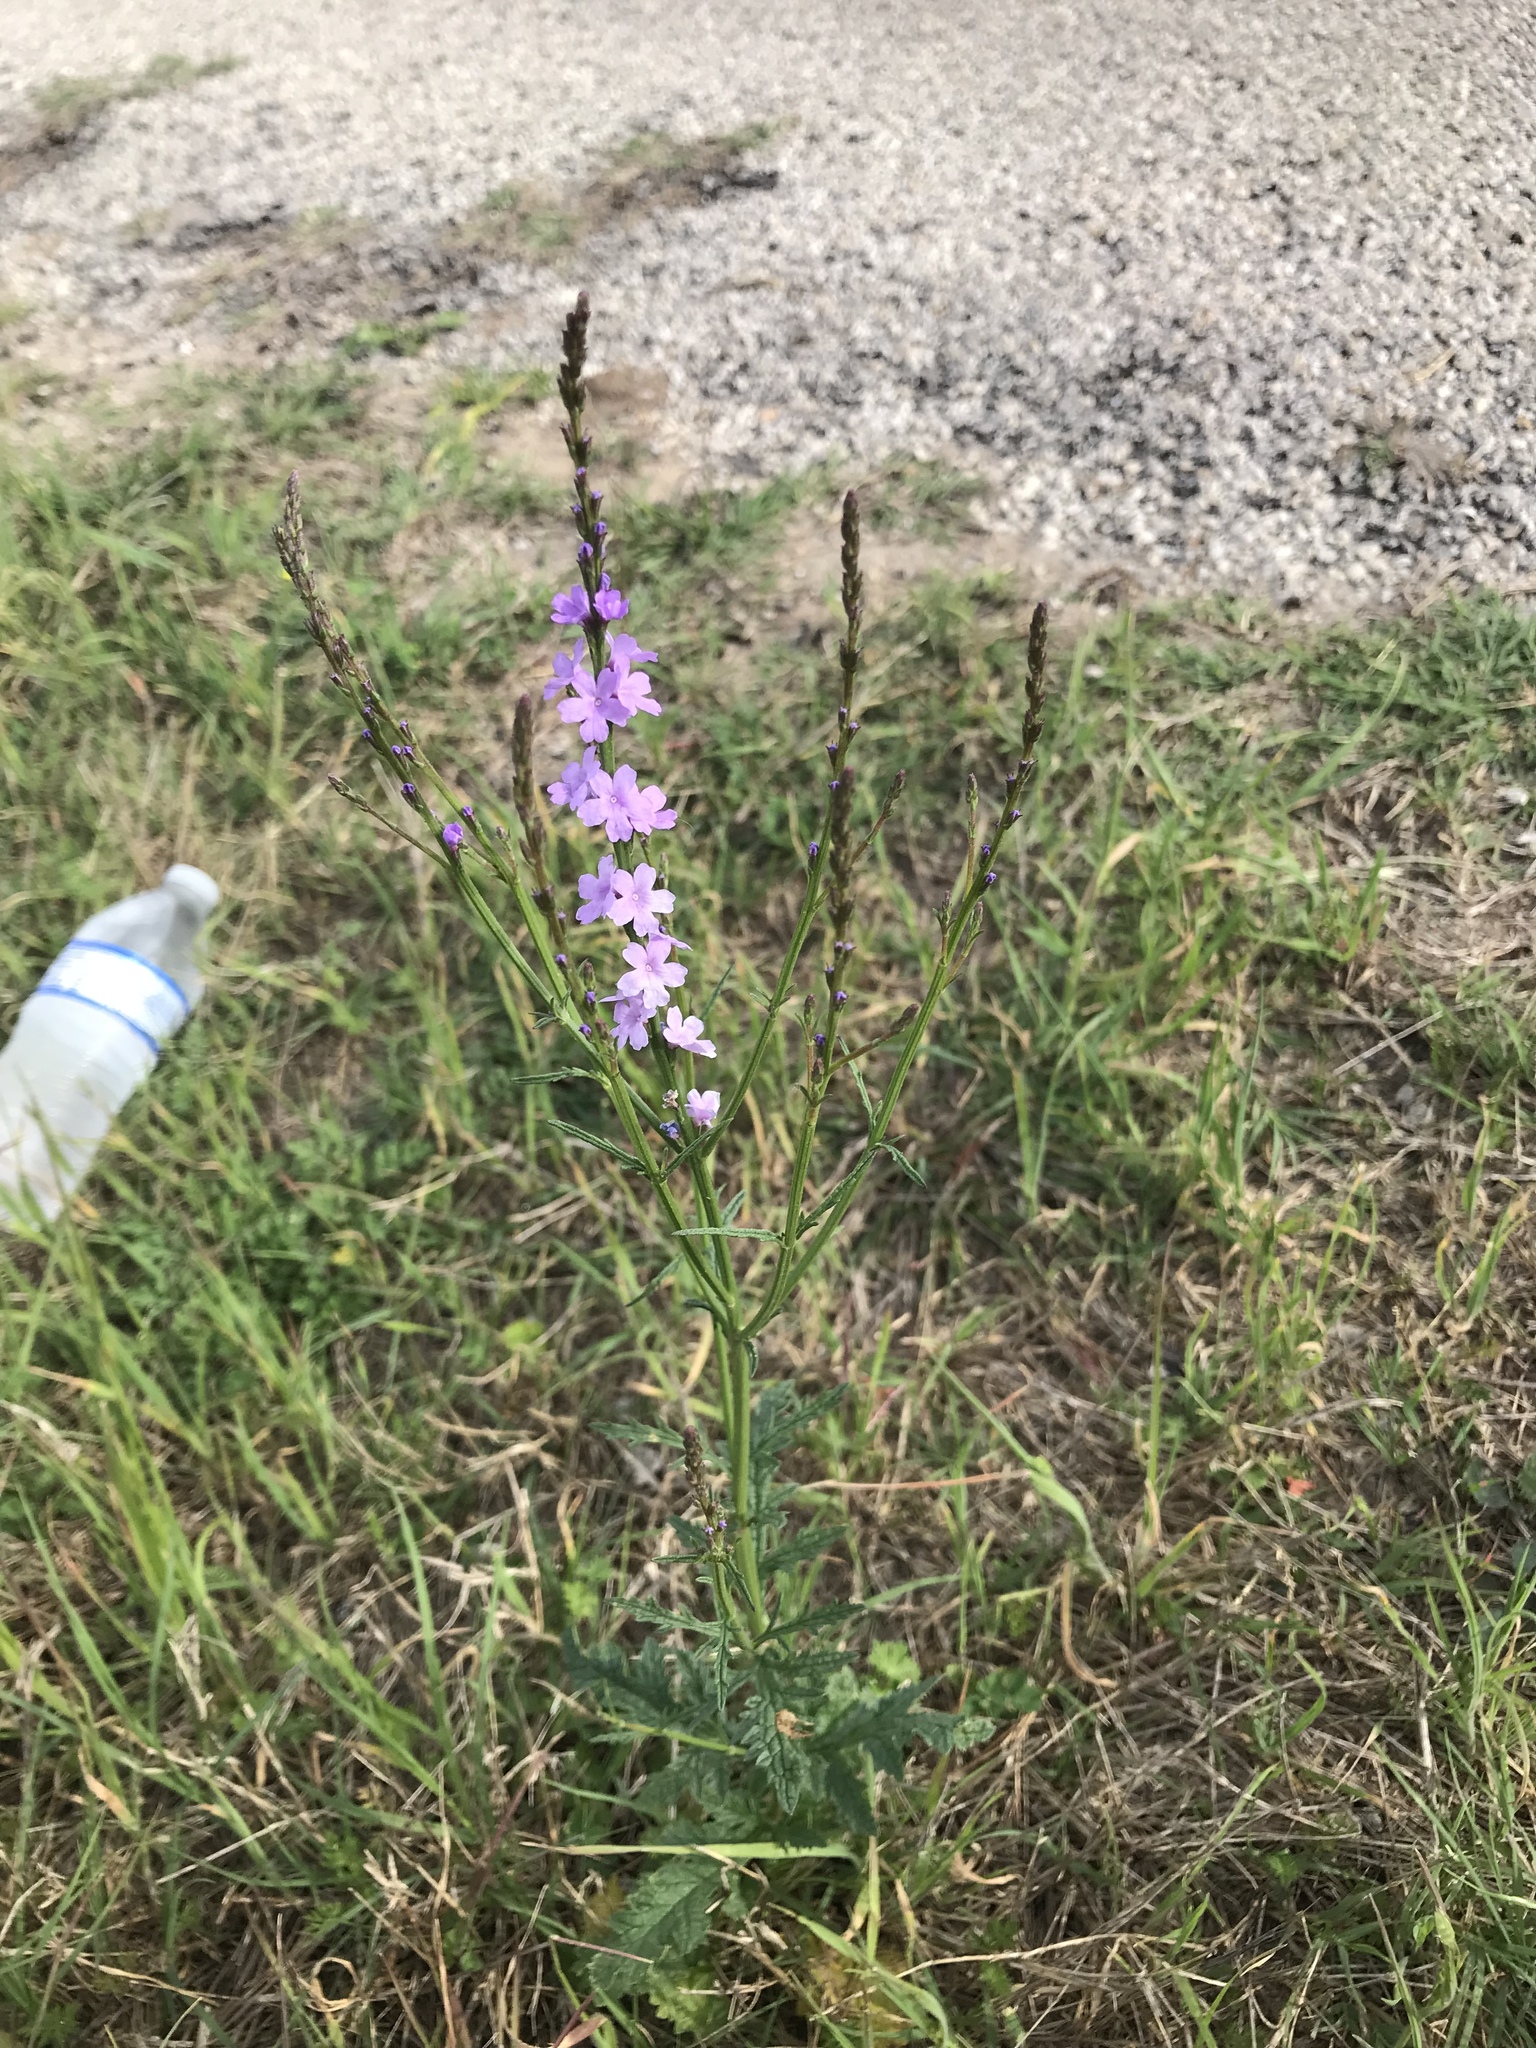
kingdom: Plantae
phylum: Tracheophyta
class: Magnoliopsida
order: Lamiales
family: Verbenaceae
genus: Verbena
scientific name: Verbena halei
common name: Texas vervain
